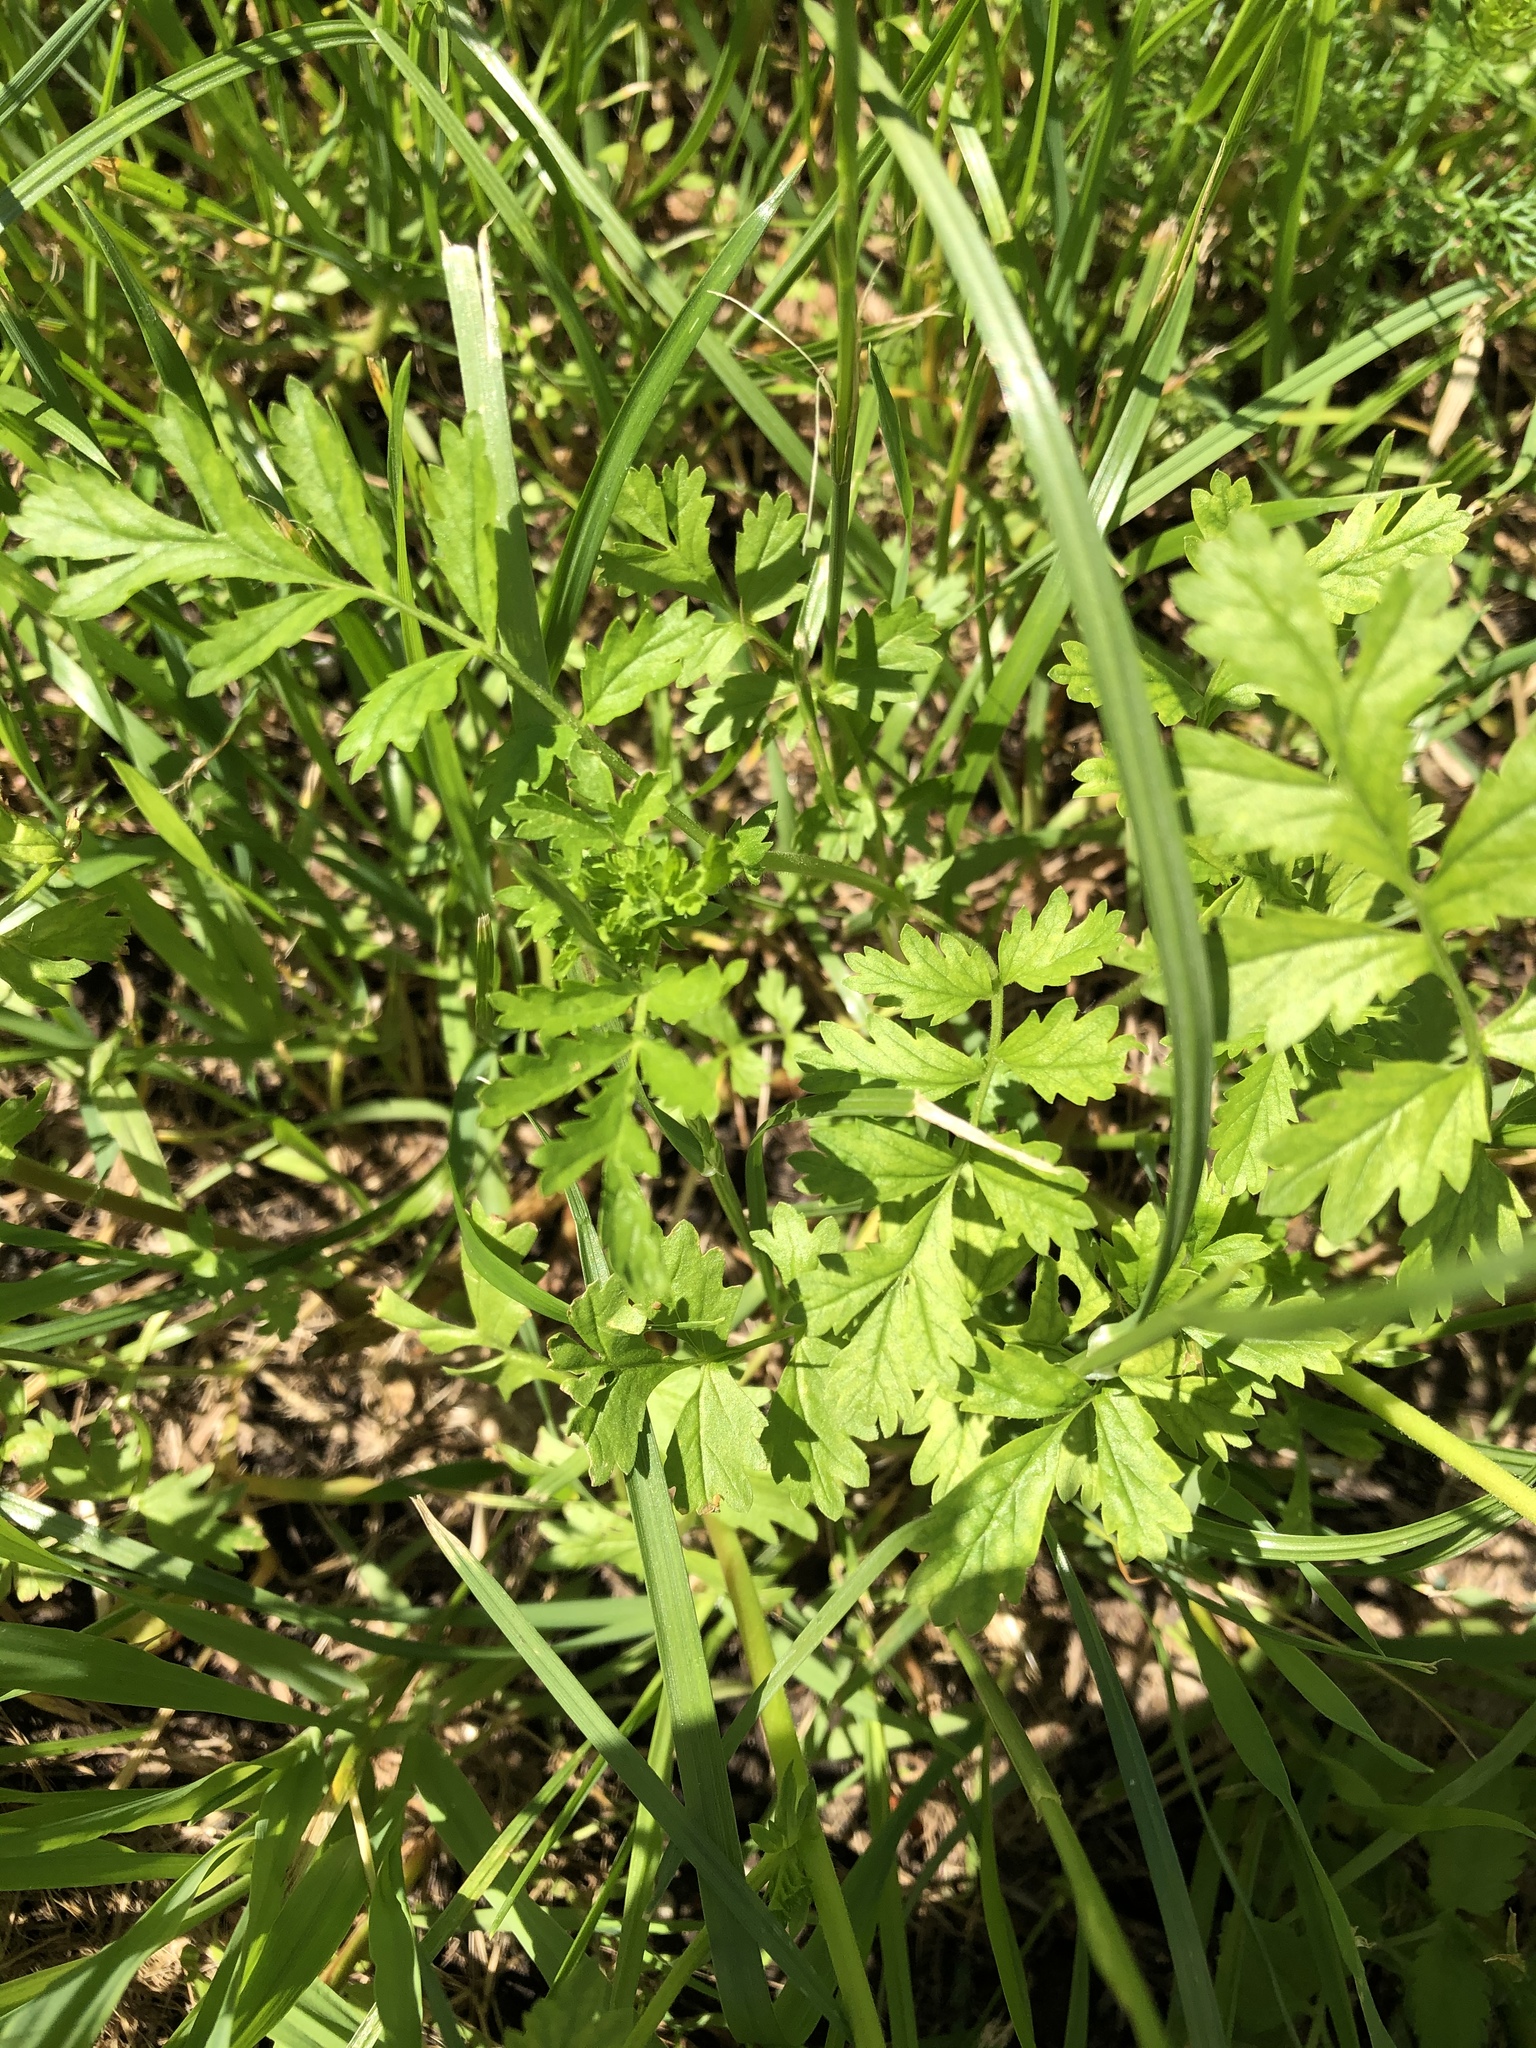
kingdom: Plantae
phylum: Tracheophyta
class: Magnoliopsida
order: Rosales
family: Rosaceae
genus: Potentilla
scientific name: Potentilla supina
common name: Prostrate cinquefoil
